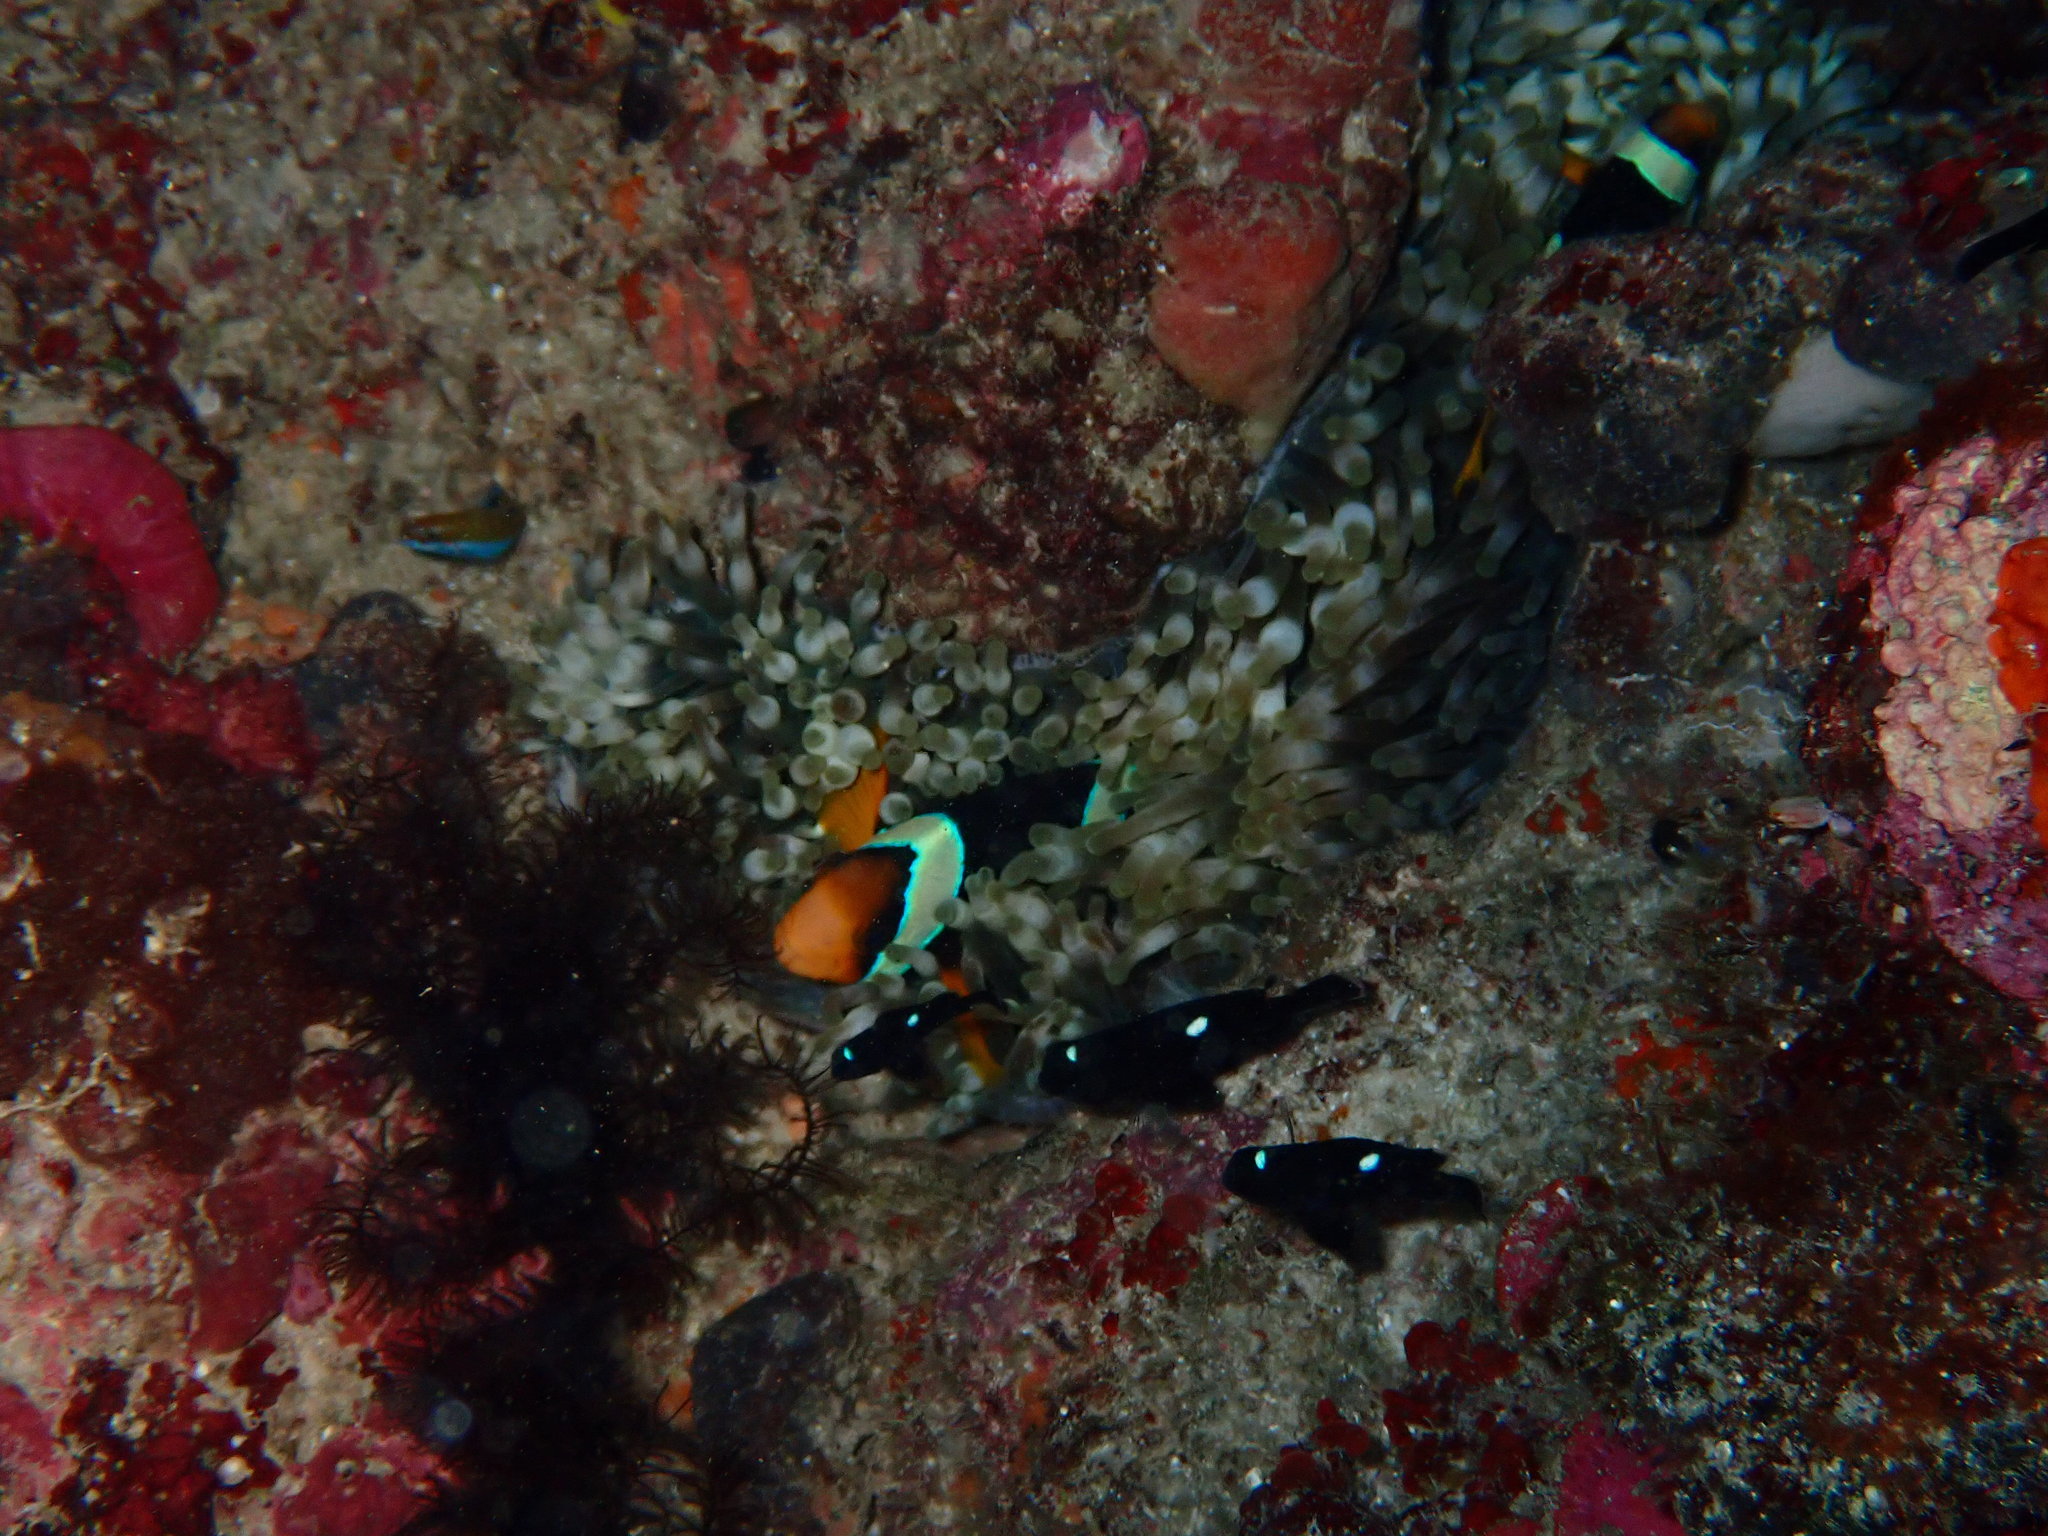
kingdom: Animalia
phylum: Chordata
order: Perciformes
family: Pomacentridae
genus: Dascyllus
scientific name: Dascyllus trimaculatus
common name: Threespot dascyllus
